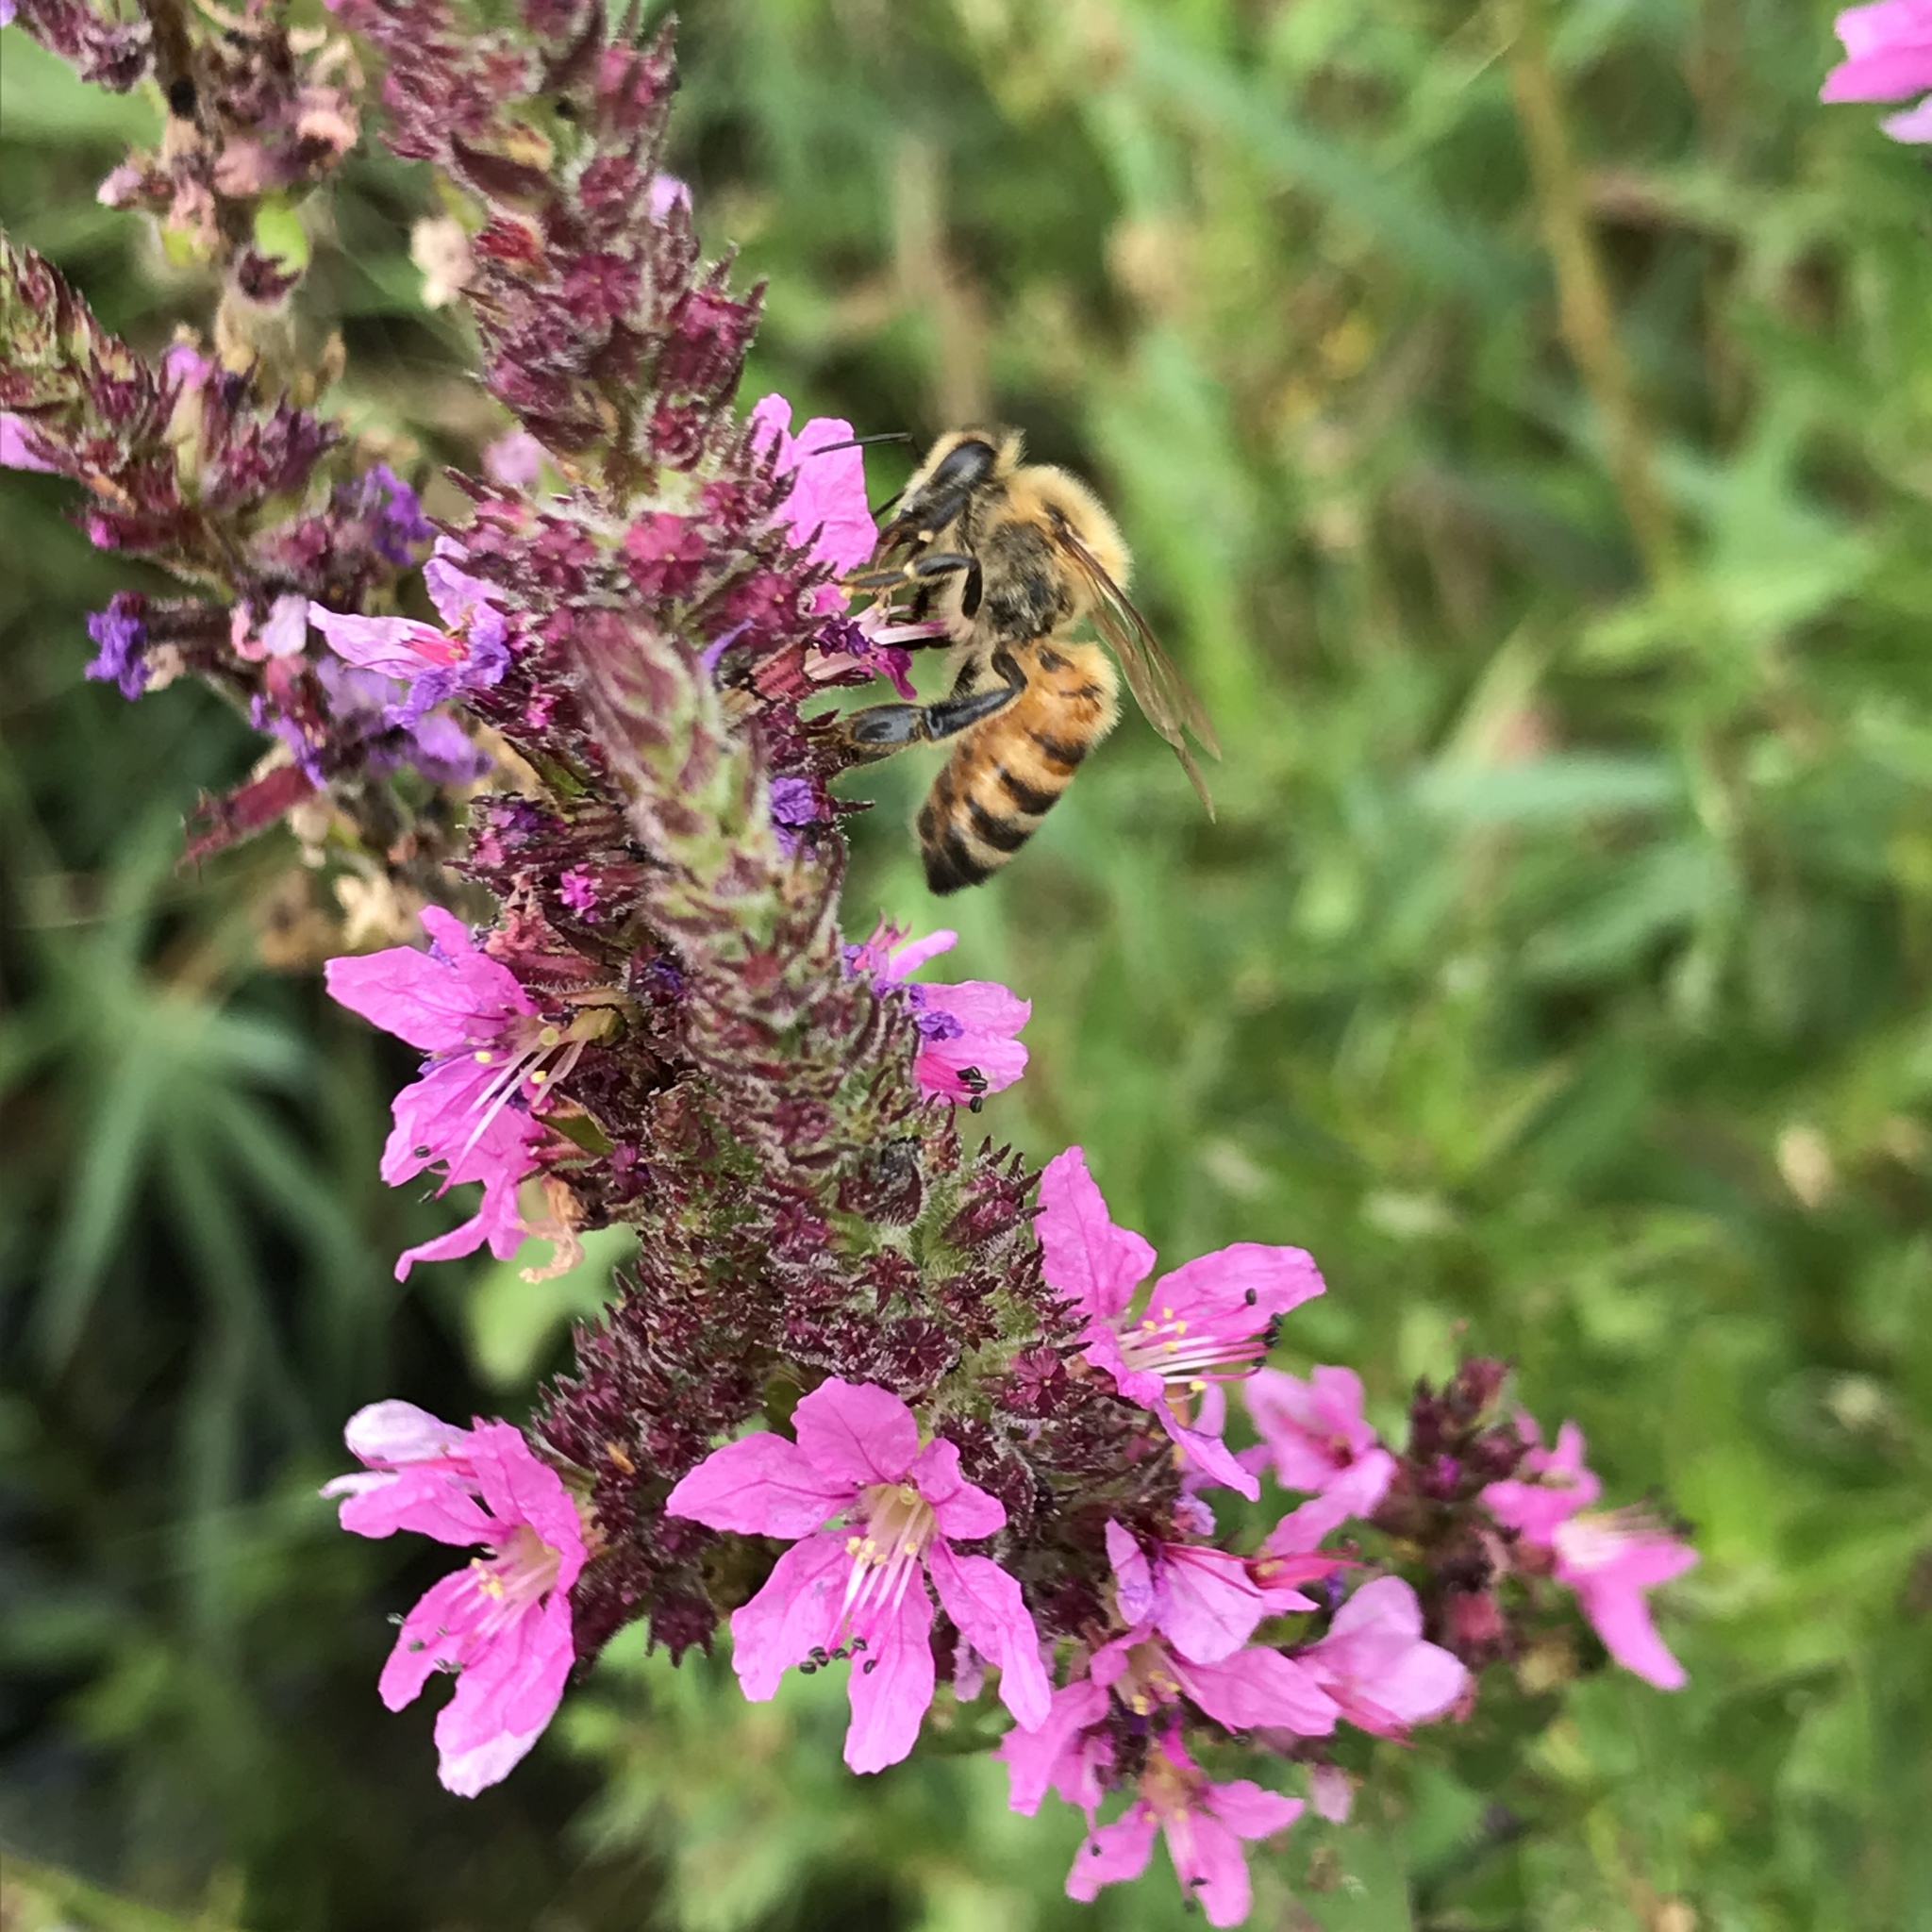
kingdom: Animalia
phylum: Arthropoda
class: Insecta
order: Hymenoptera
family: Apidae
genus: Apis
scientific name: Apis mellifera
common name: Honey bee
